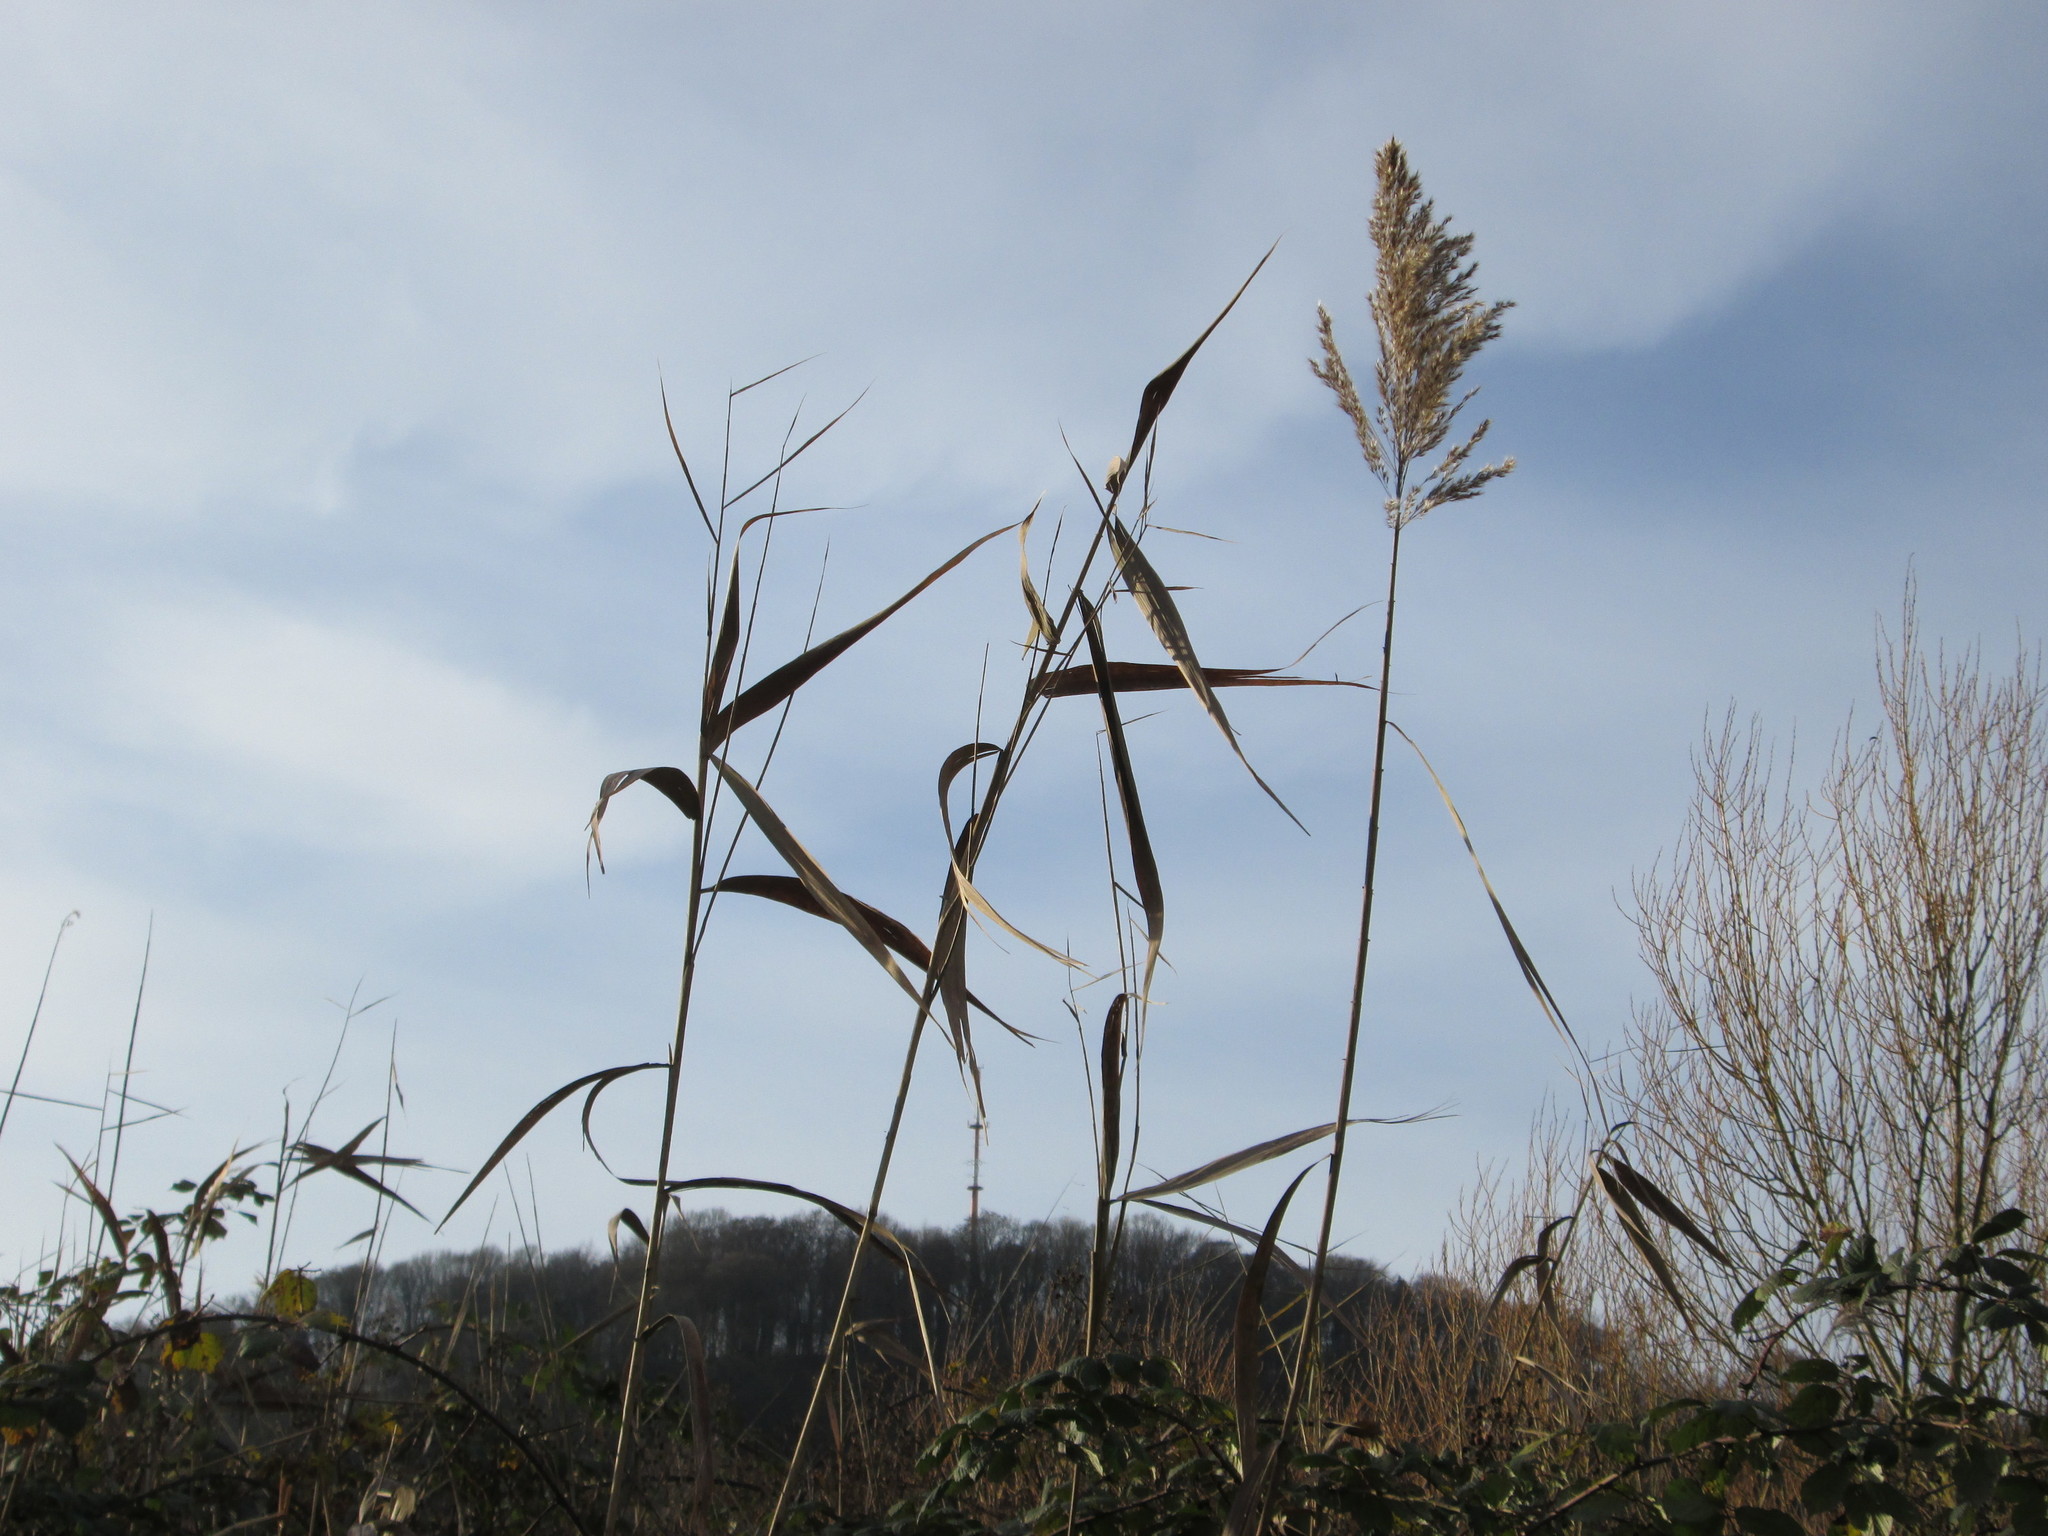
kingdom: Plantae
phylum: Tracheophyta
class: Liliopsida
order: Poales
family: Poaceae
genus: Phragmites
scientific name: Phragmites australis
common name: Common reed
